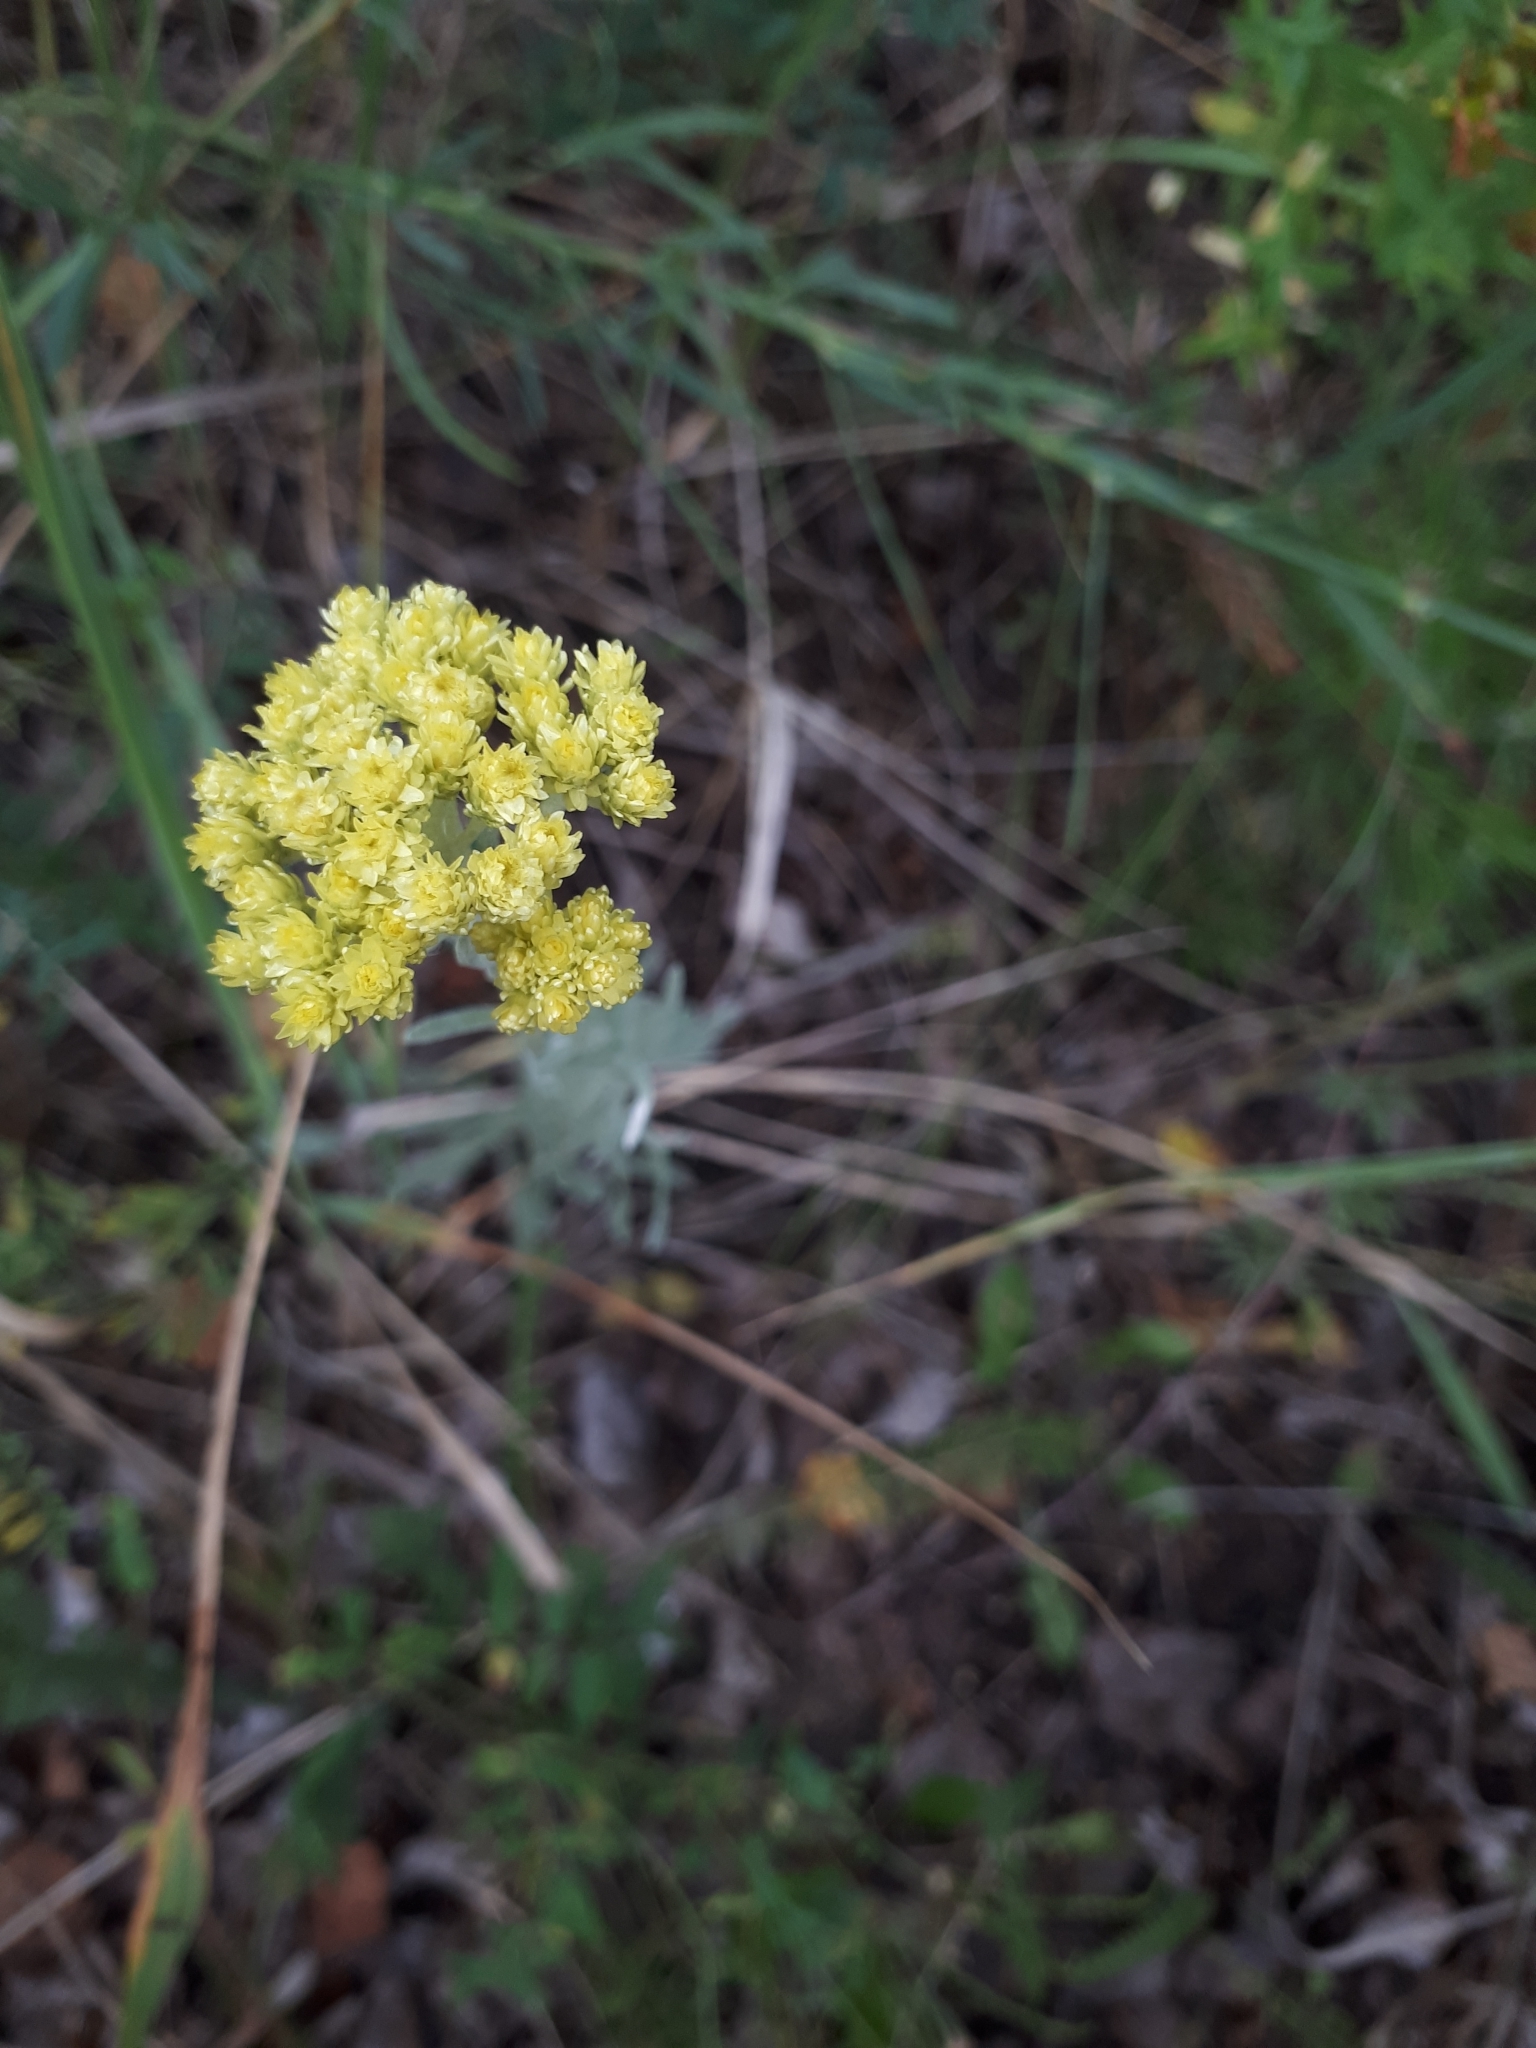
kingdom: Plantae
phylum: Tracheophyta
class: Magnoliopsida
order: Asterales
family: Asteraceae
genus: Helichrysum
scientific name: Helichrysum arenarium
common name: Strawflower
